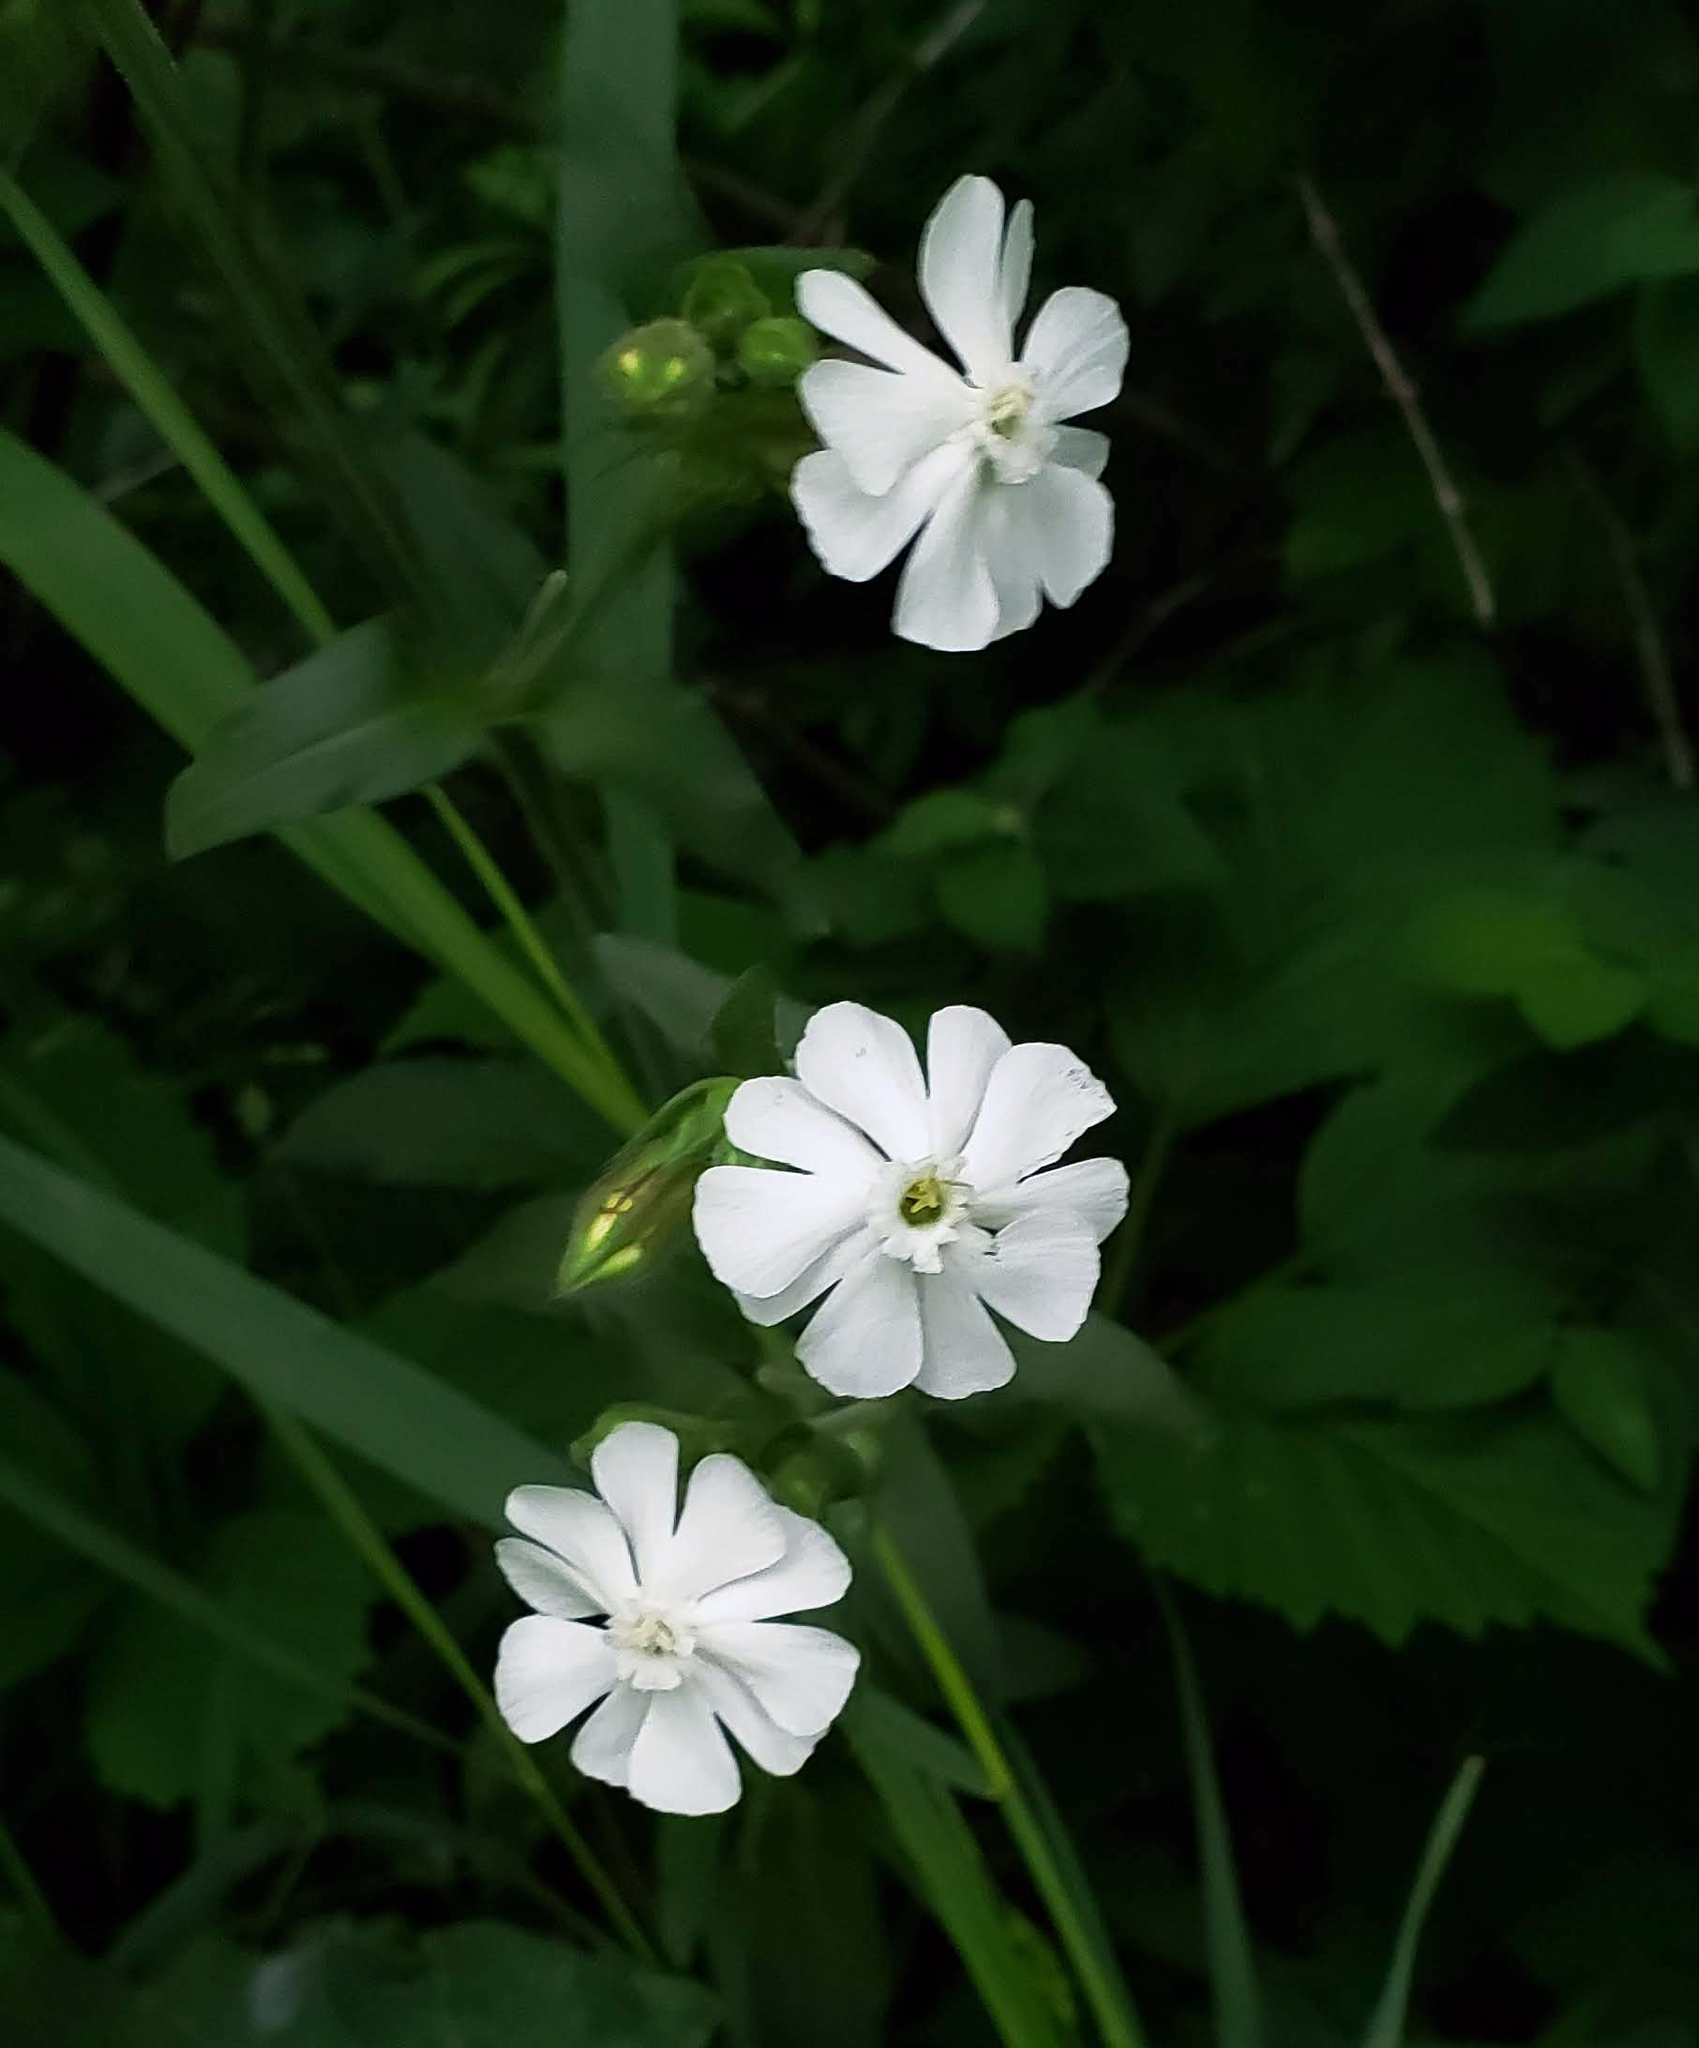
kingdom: Plantae
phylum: Tracheophyta
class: Magnoliopsida
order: Caryophyllales
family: Caryophyllaceae
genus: Silene
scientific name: Silene latifolia
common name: White campion
